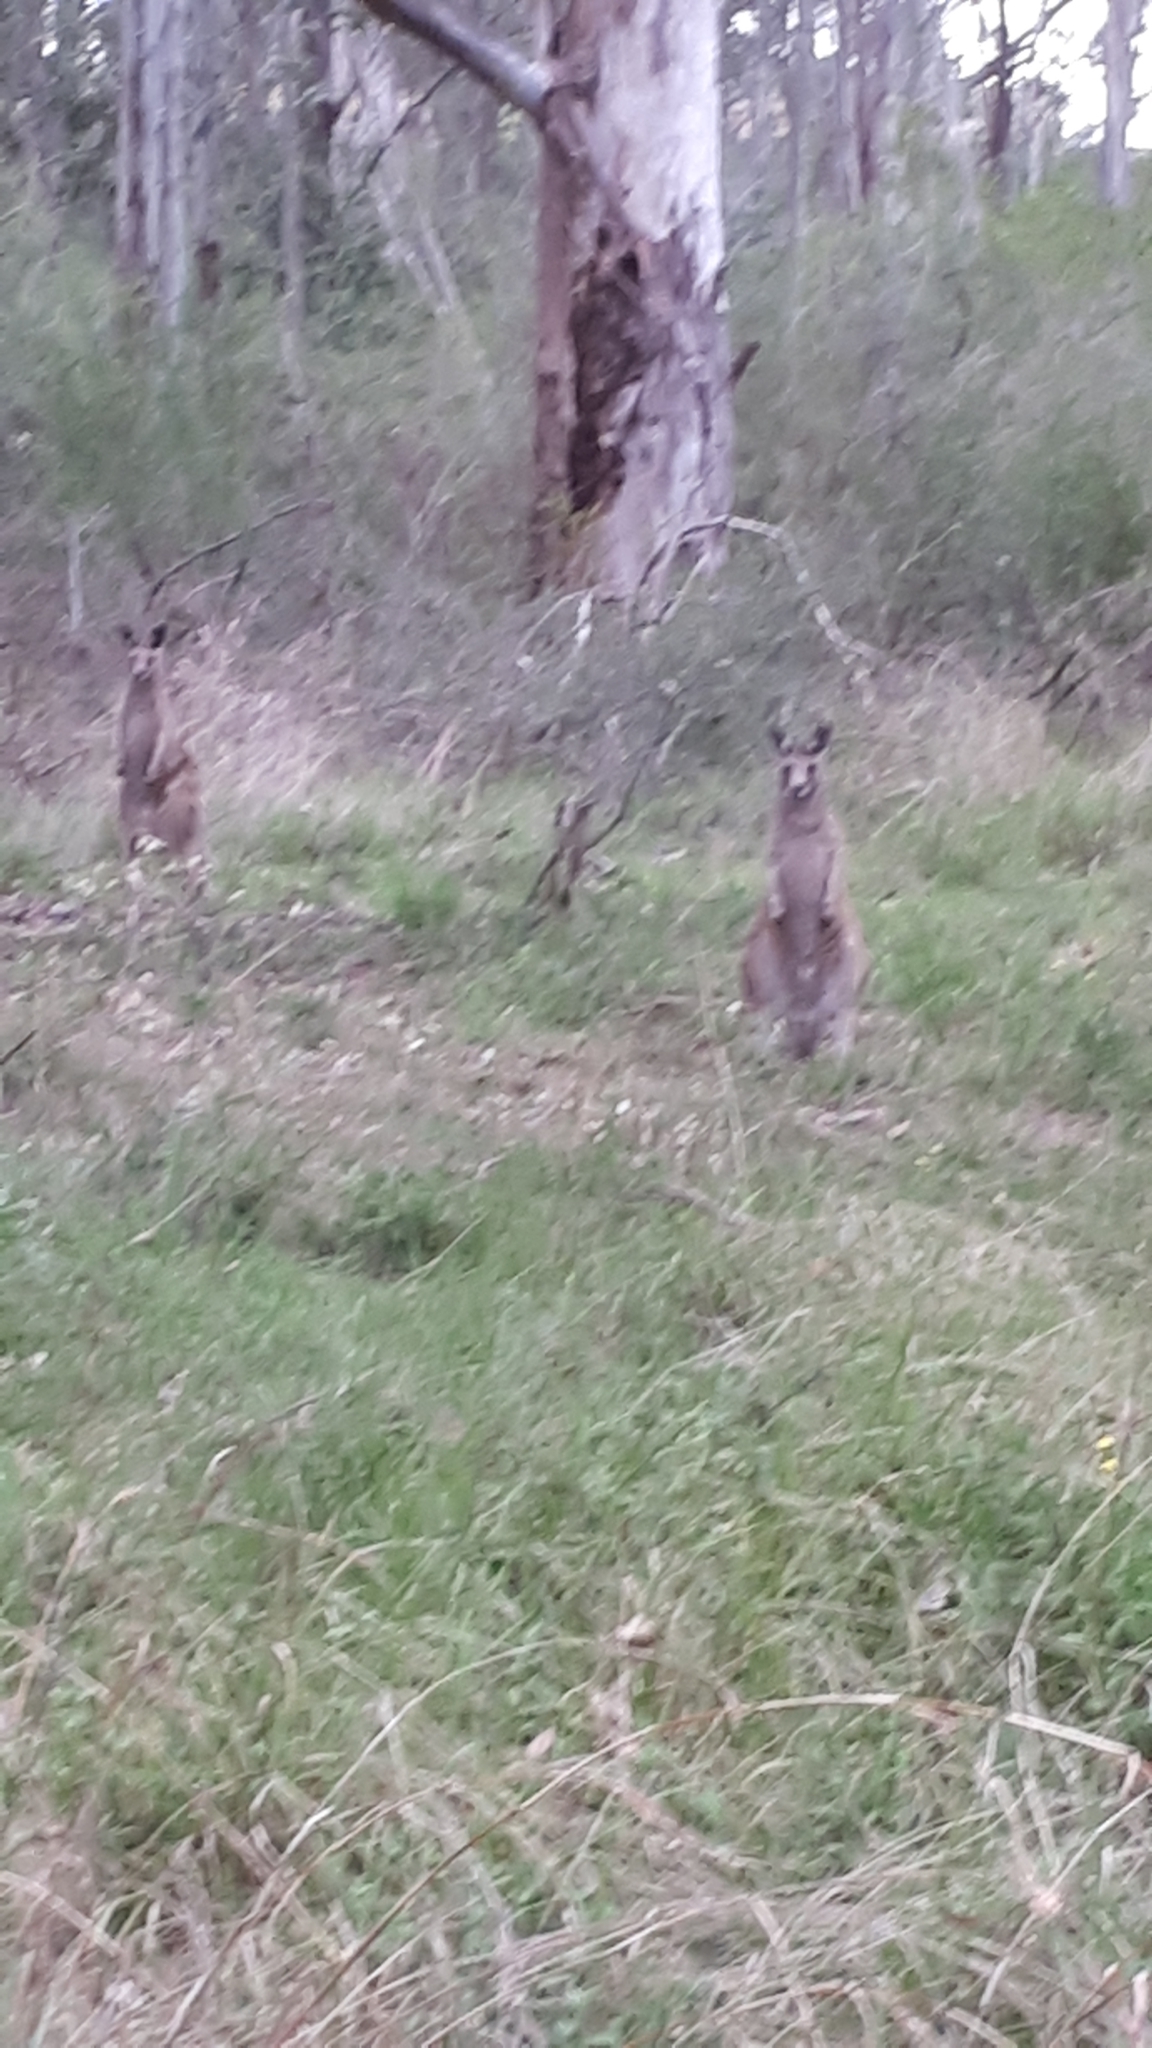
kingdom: Animalia
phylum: Chordata
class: Mammalia
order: Diprotodontia
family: Macropodidae
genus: Macropus
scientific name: Macropus giganteus
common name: Eastern grey kangaroo
